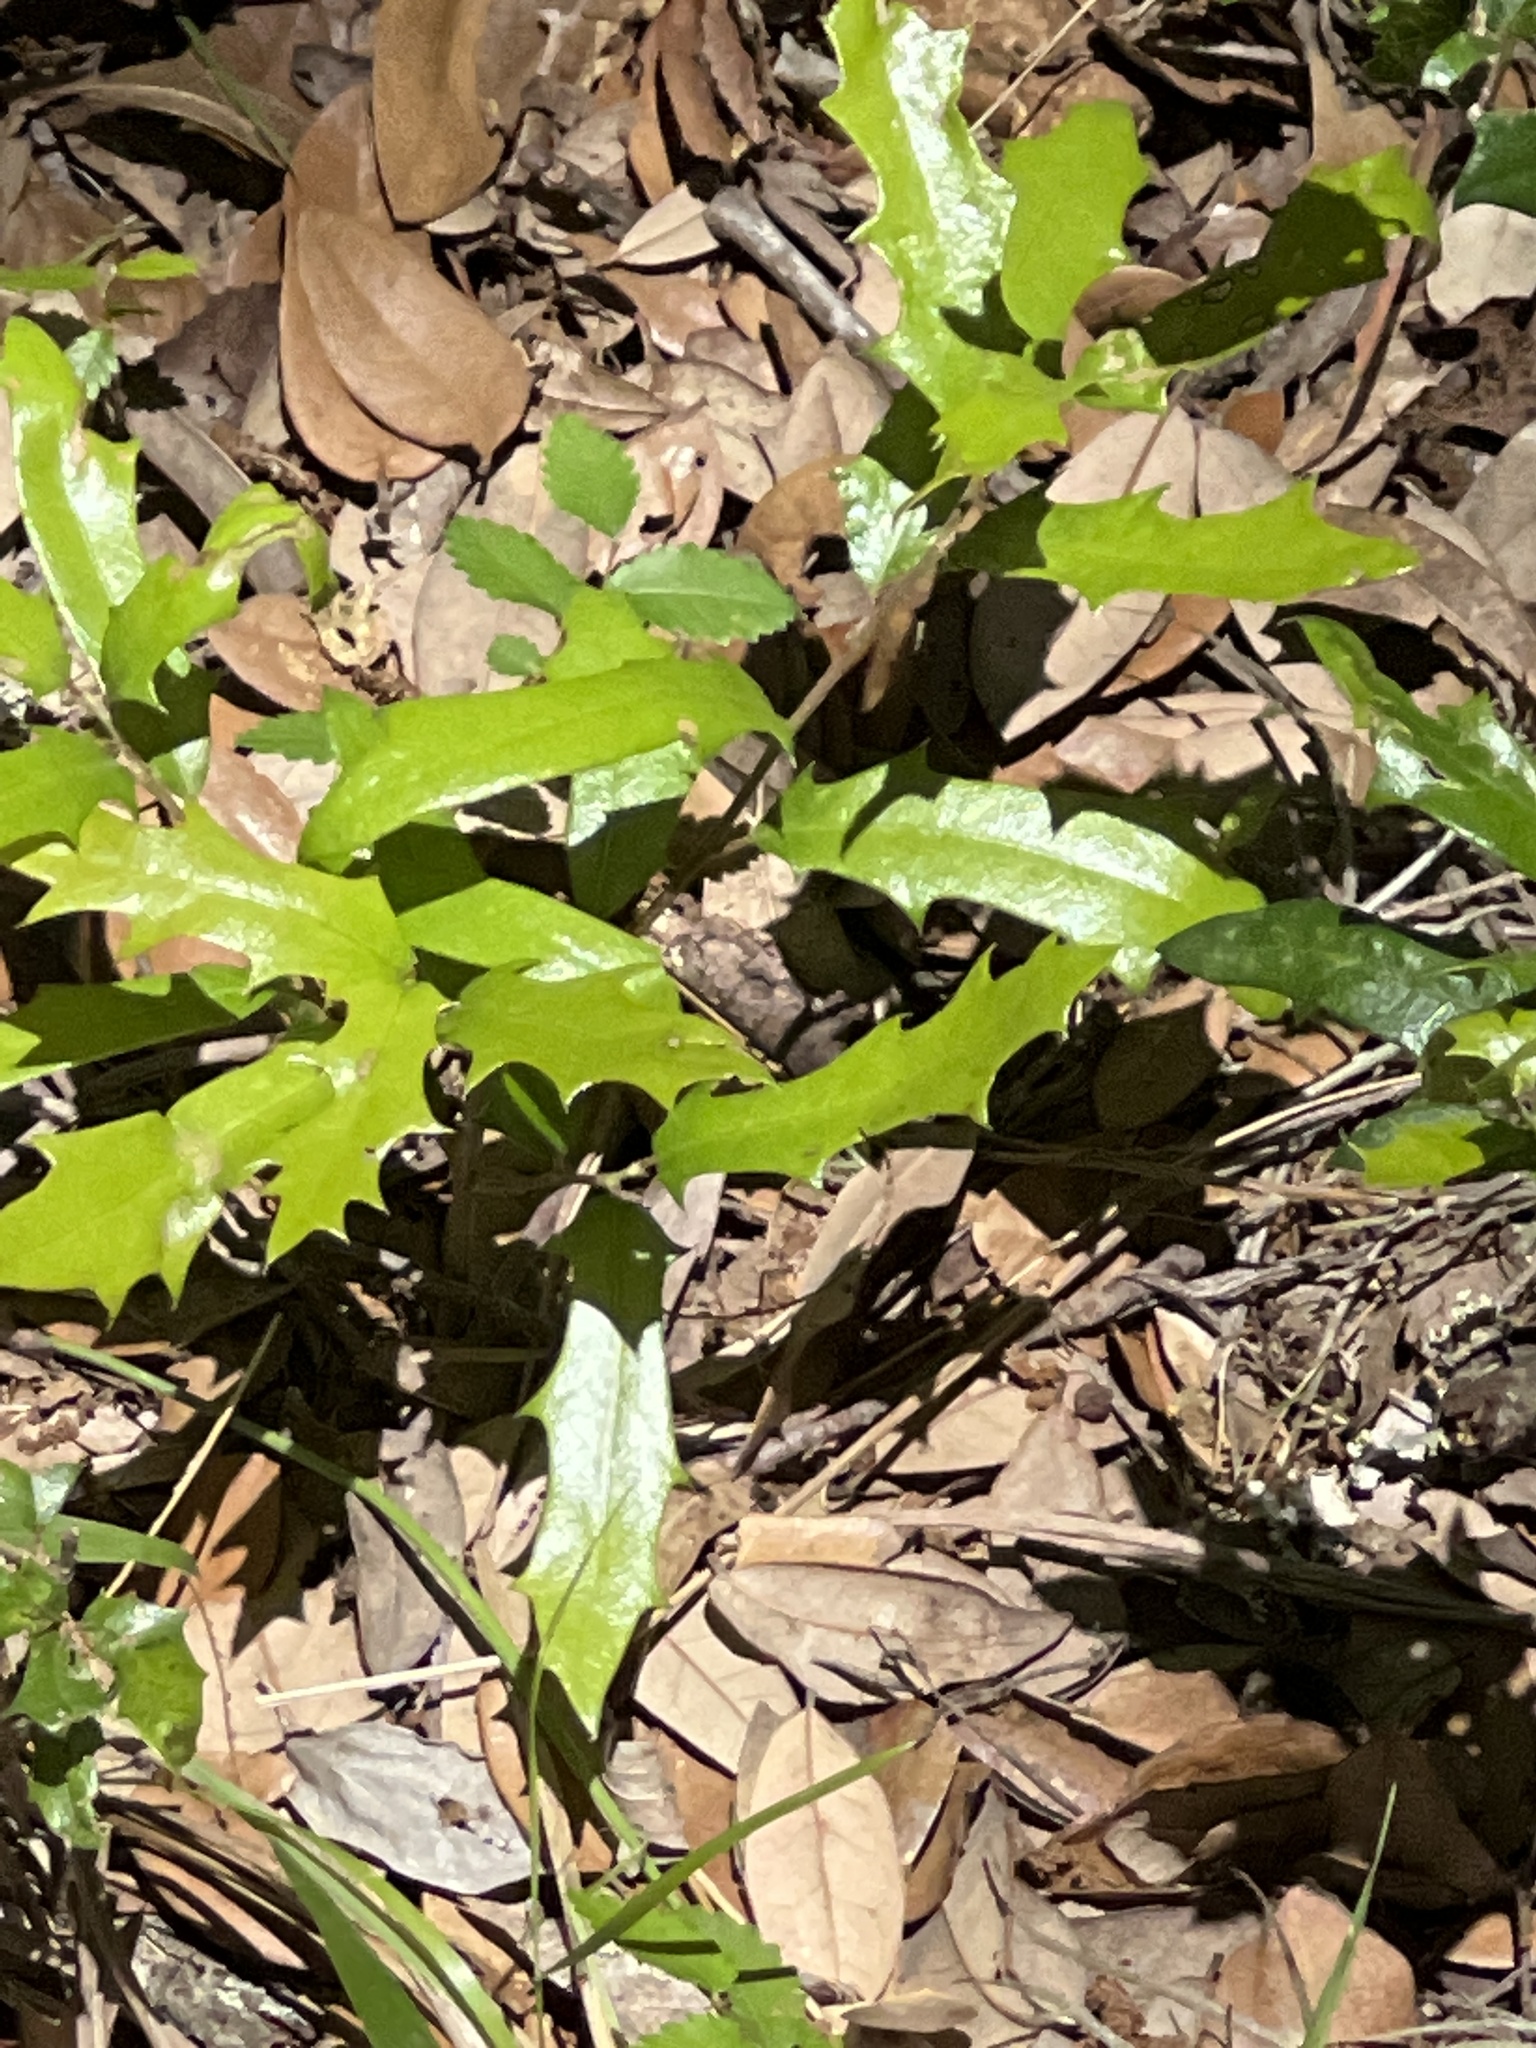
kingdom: Plantae
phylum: Tracheophyta
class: Magnoliopsida
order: Fagales
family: Fagaceae
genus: Quercus
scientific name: Quercus fusiformis
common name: Texas live oak
